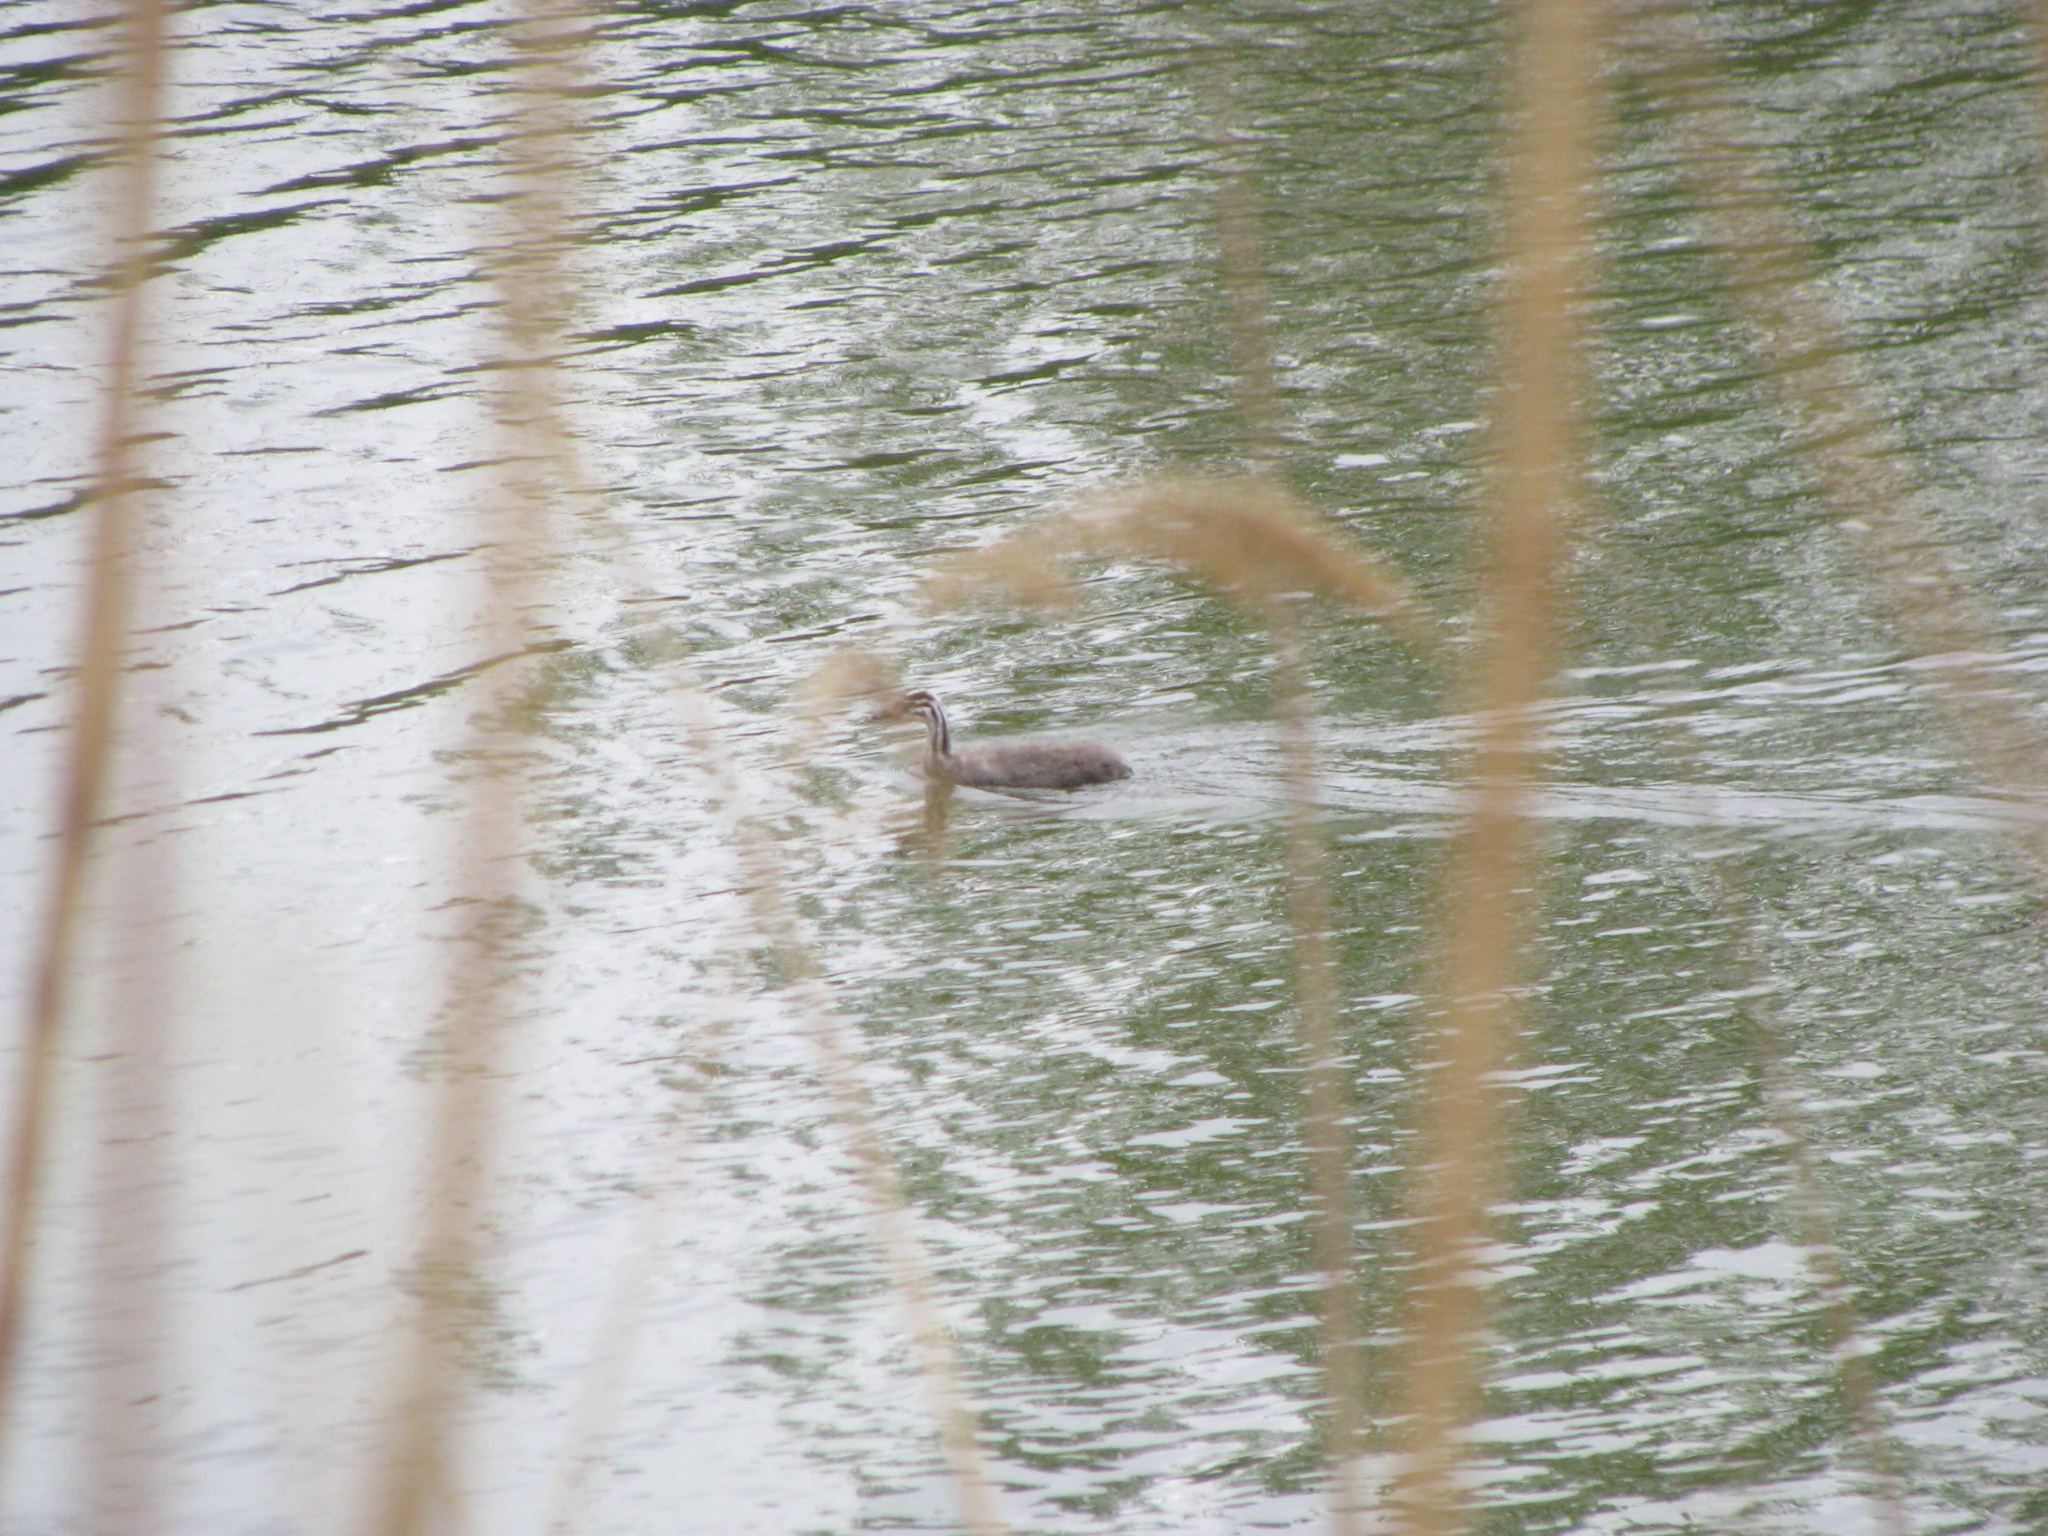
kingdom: Animalia
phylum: Chordata
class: Aves
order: Podicipediformes
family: Podicipedidae
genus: Podiceps
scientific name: Podiceps cristatus
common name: Great crested grebe
